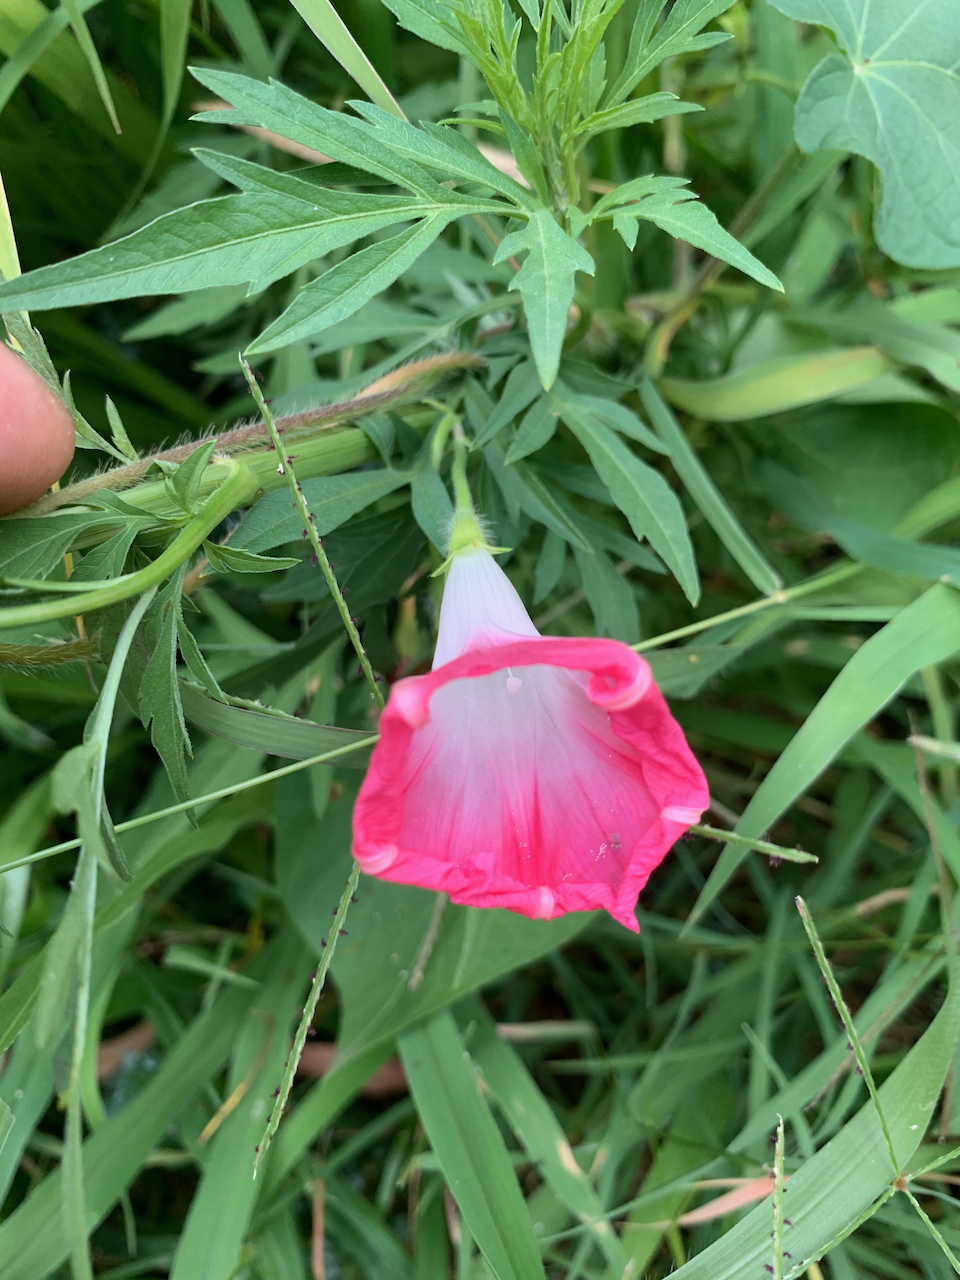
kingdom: Plantae
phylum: Tracheophyta
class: Magnoliopsida
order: Solanales
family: Convolvulaceae
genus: Ipomoea
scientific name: Ipomoea purpurea
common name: Common morning-glory
